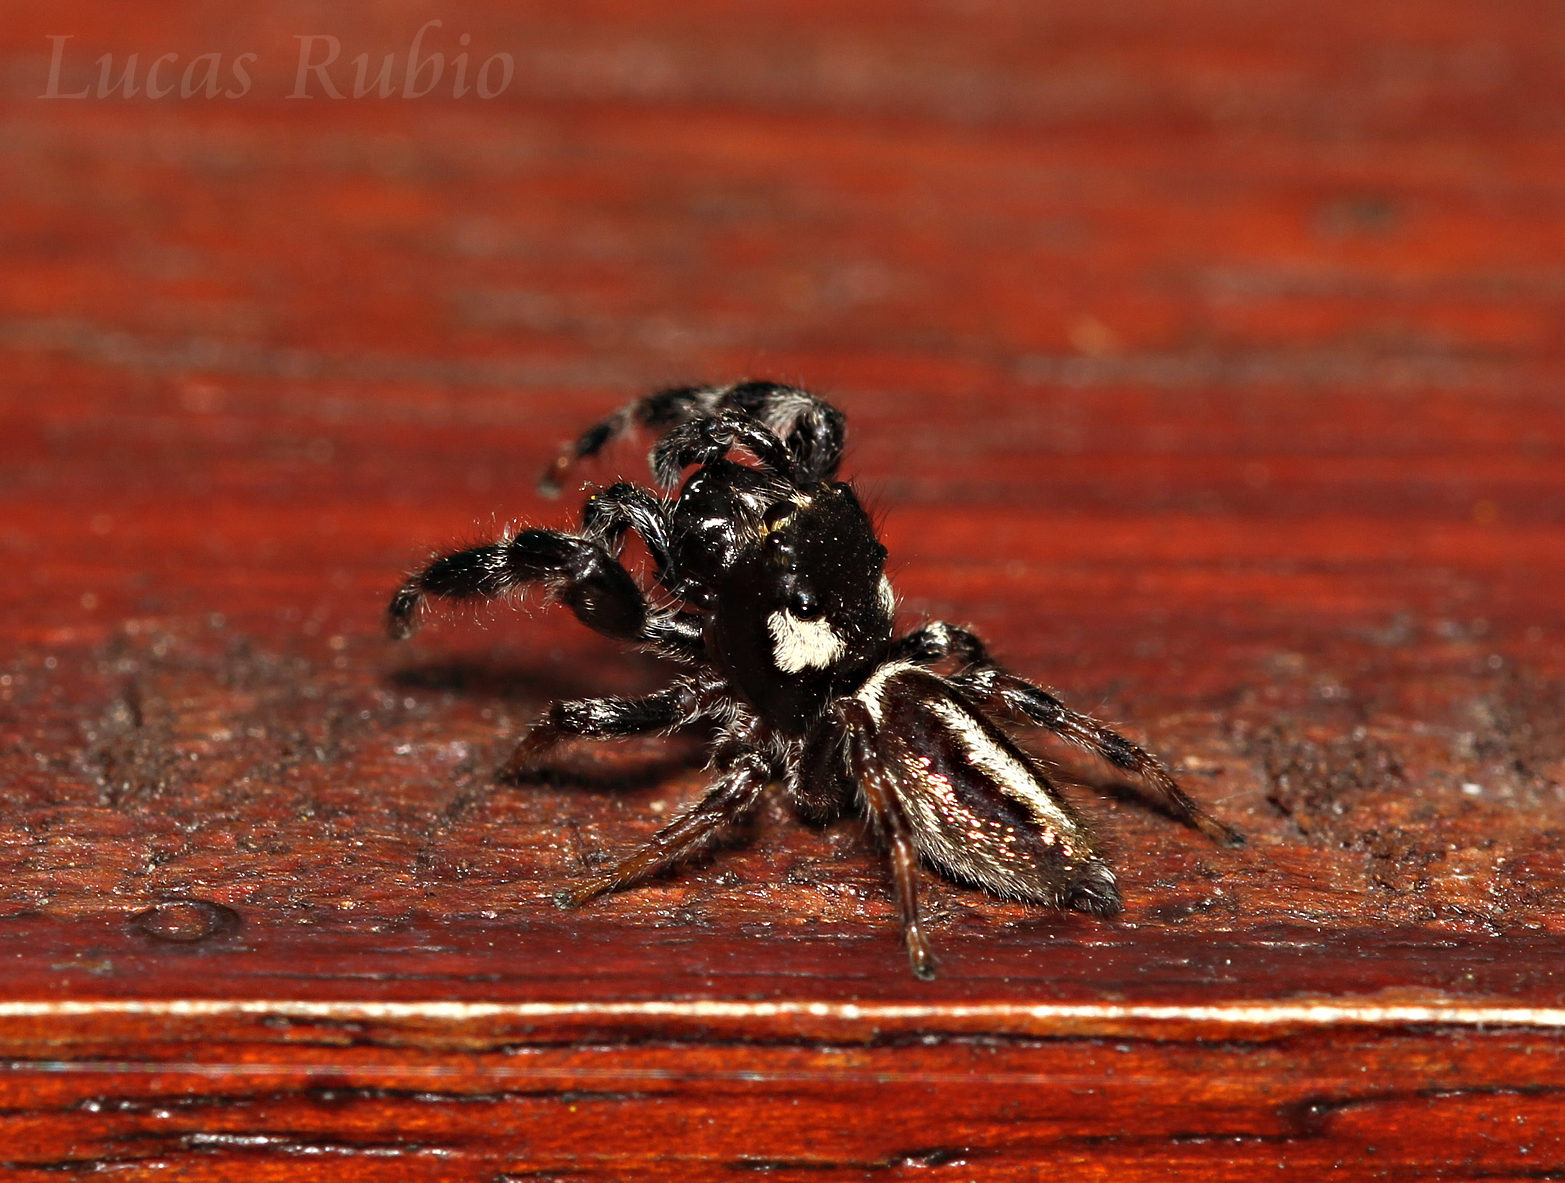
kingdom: Animalia
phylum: Arthropoda
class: Arachnida
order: Araneae
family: Salticidae
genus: Dendryphantes
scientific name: Dendryphantes mordax
